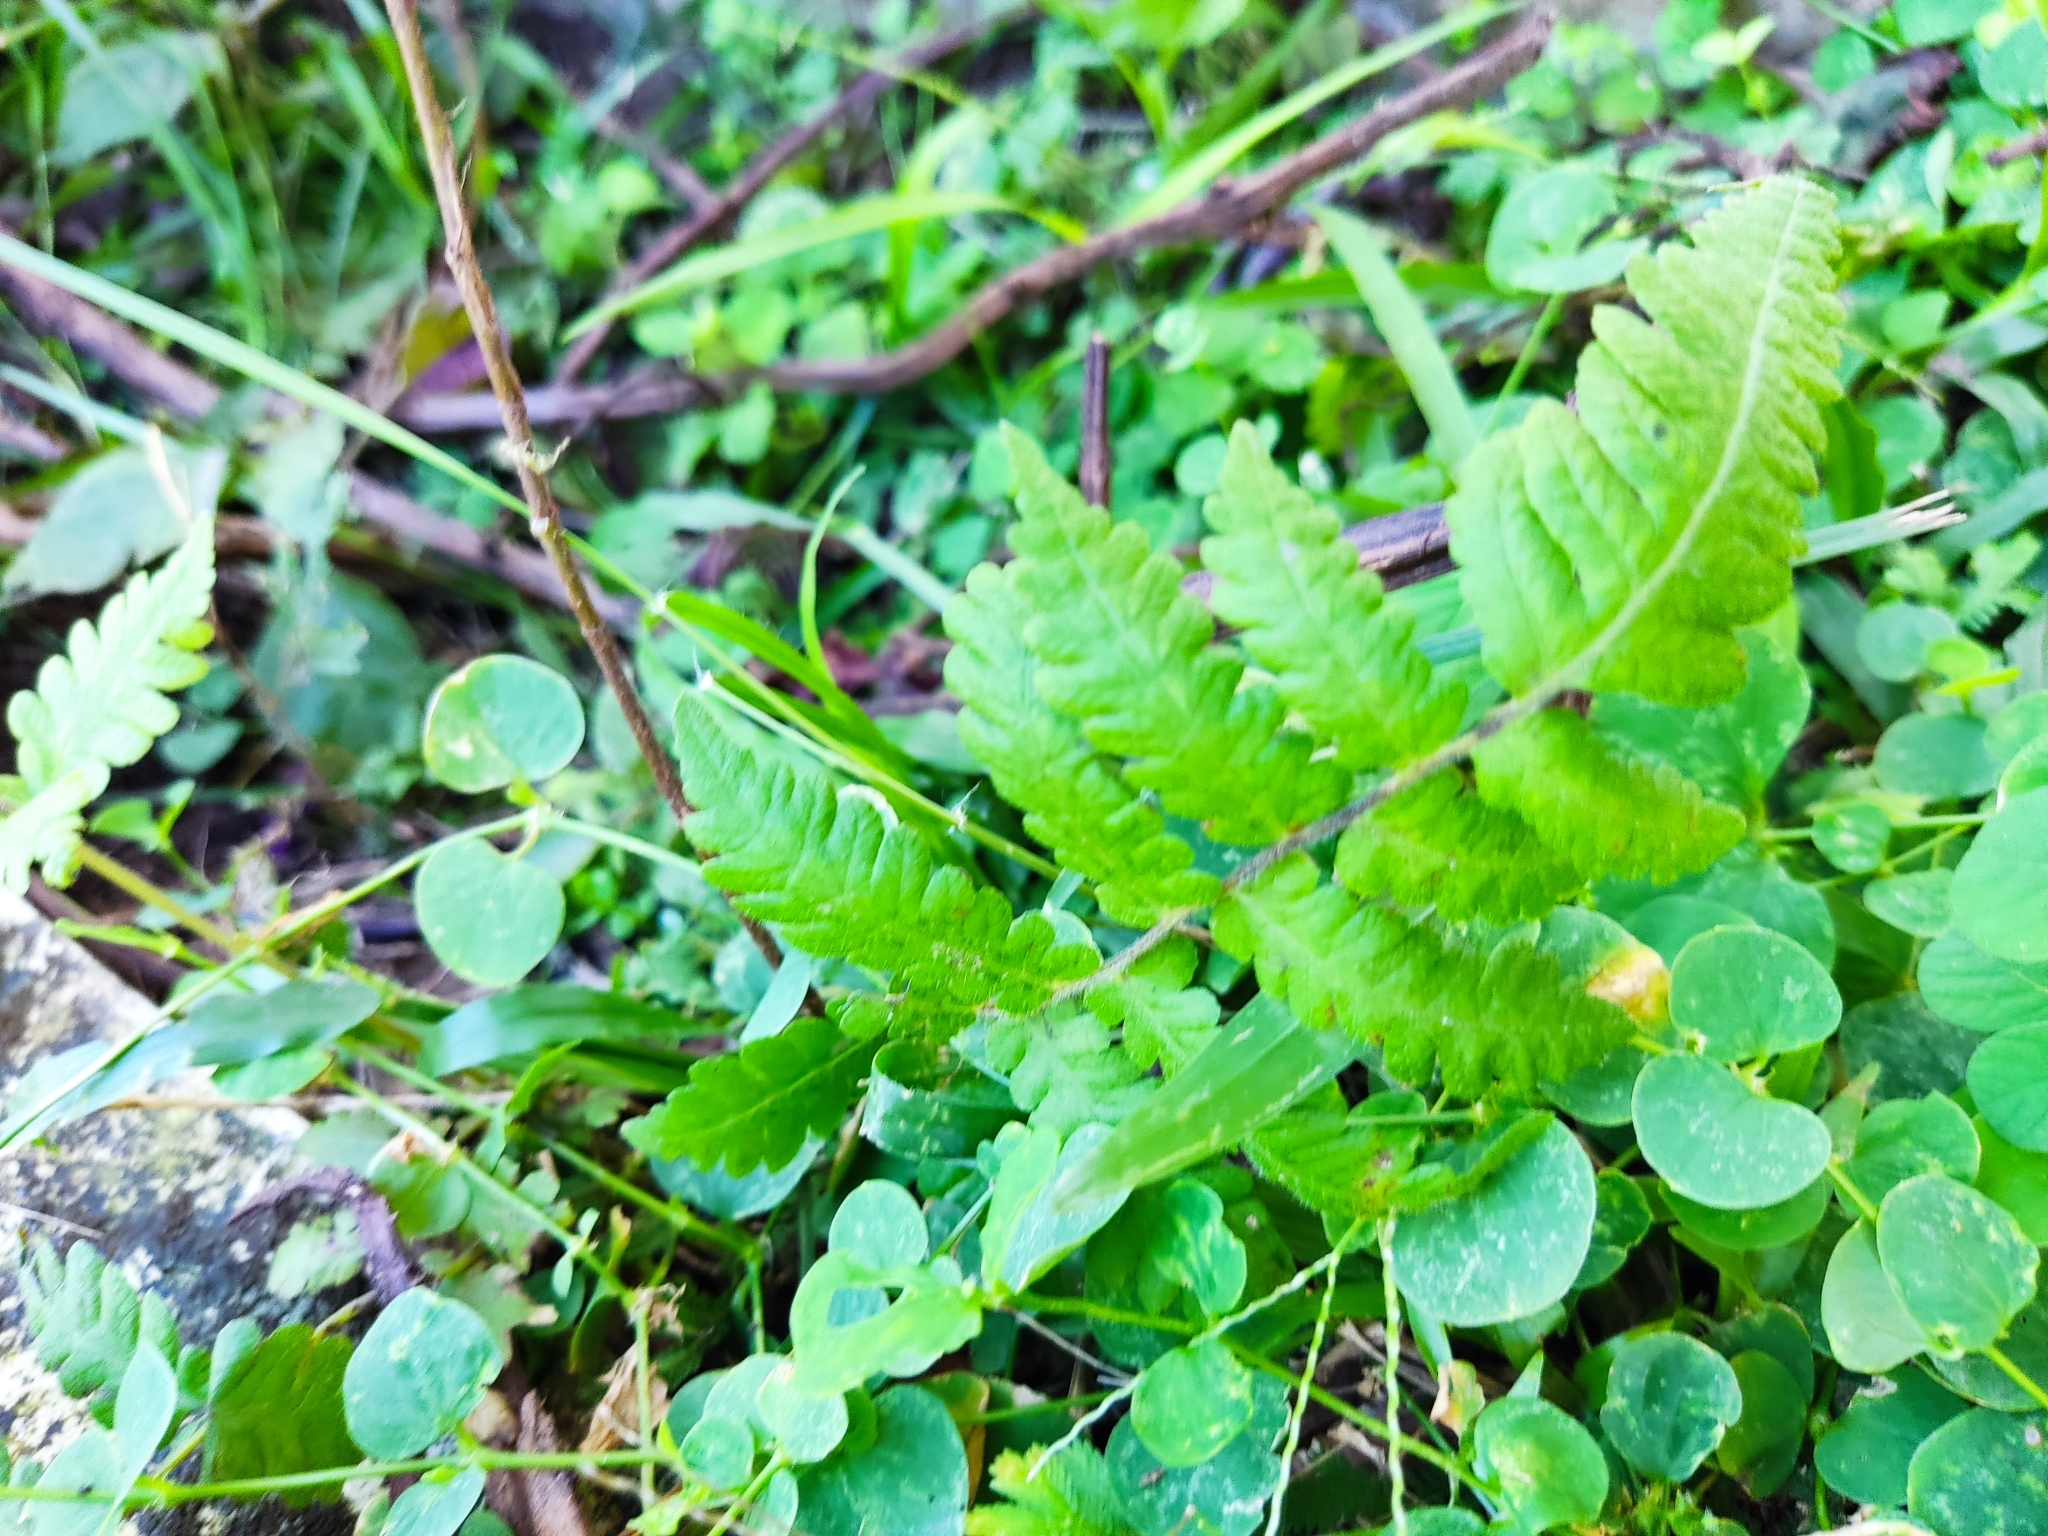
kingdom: Plantae
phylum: Tracheophyta
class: Polypodiopsida
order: Polypodiales
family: Thelypteridaceae
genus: Christella
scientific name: Christella dentata
